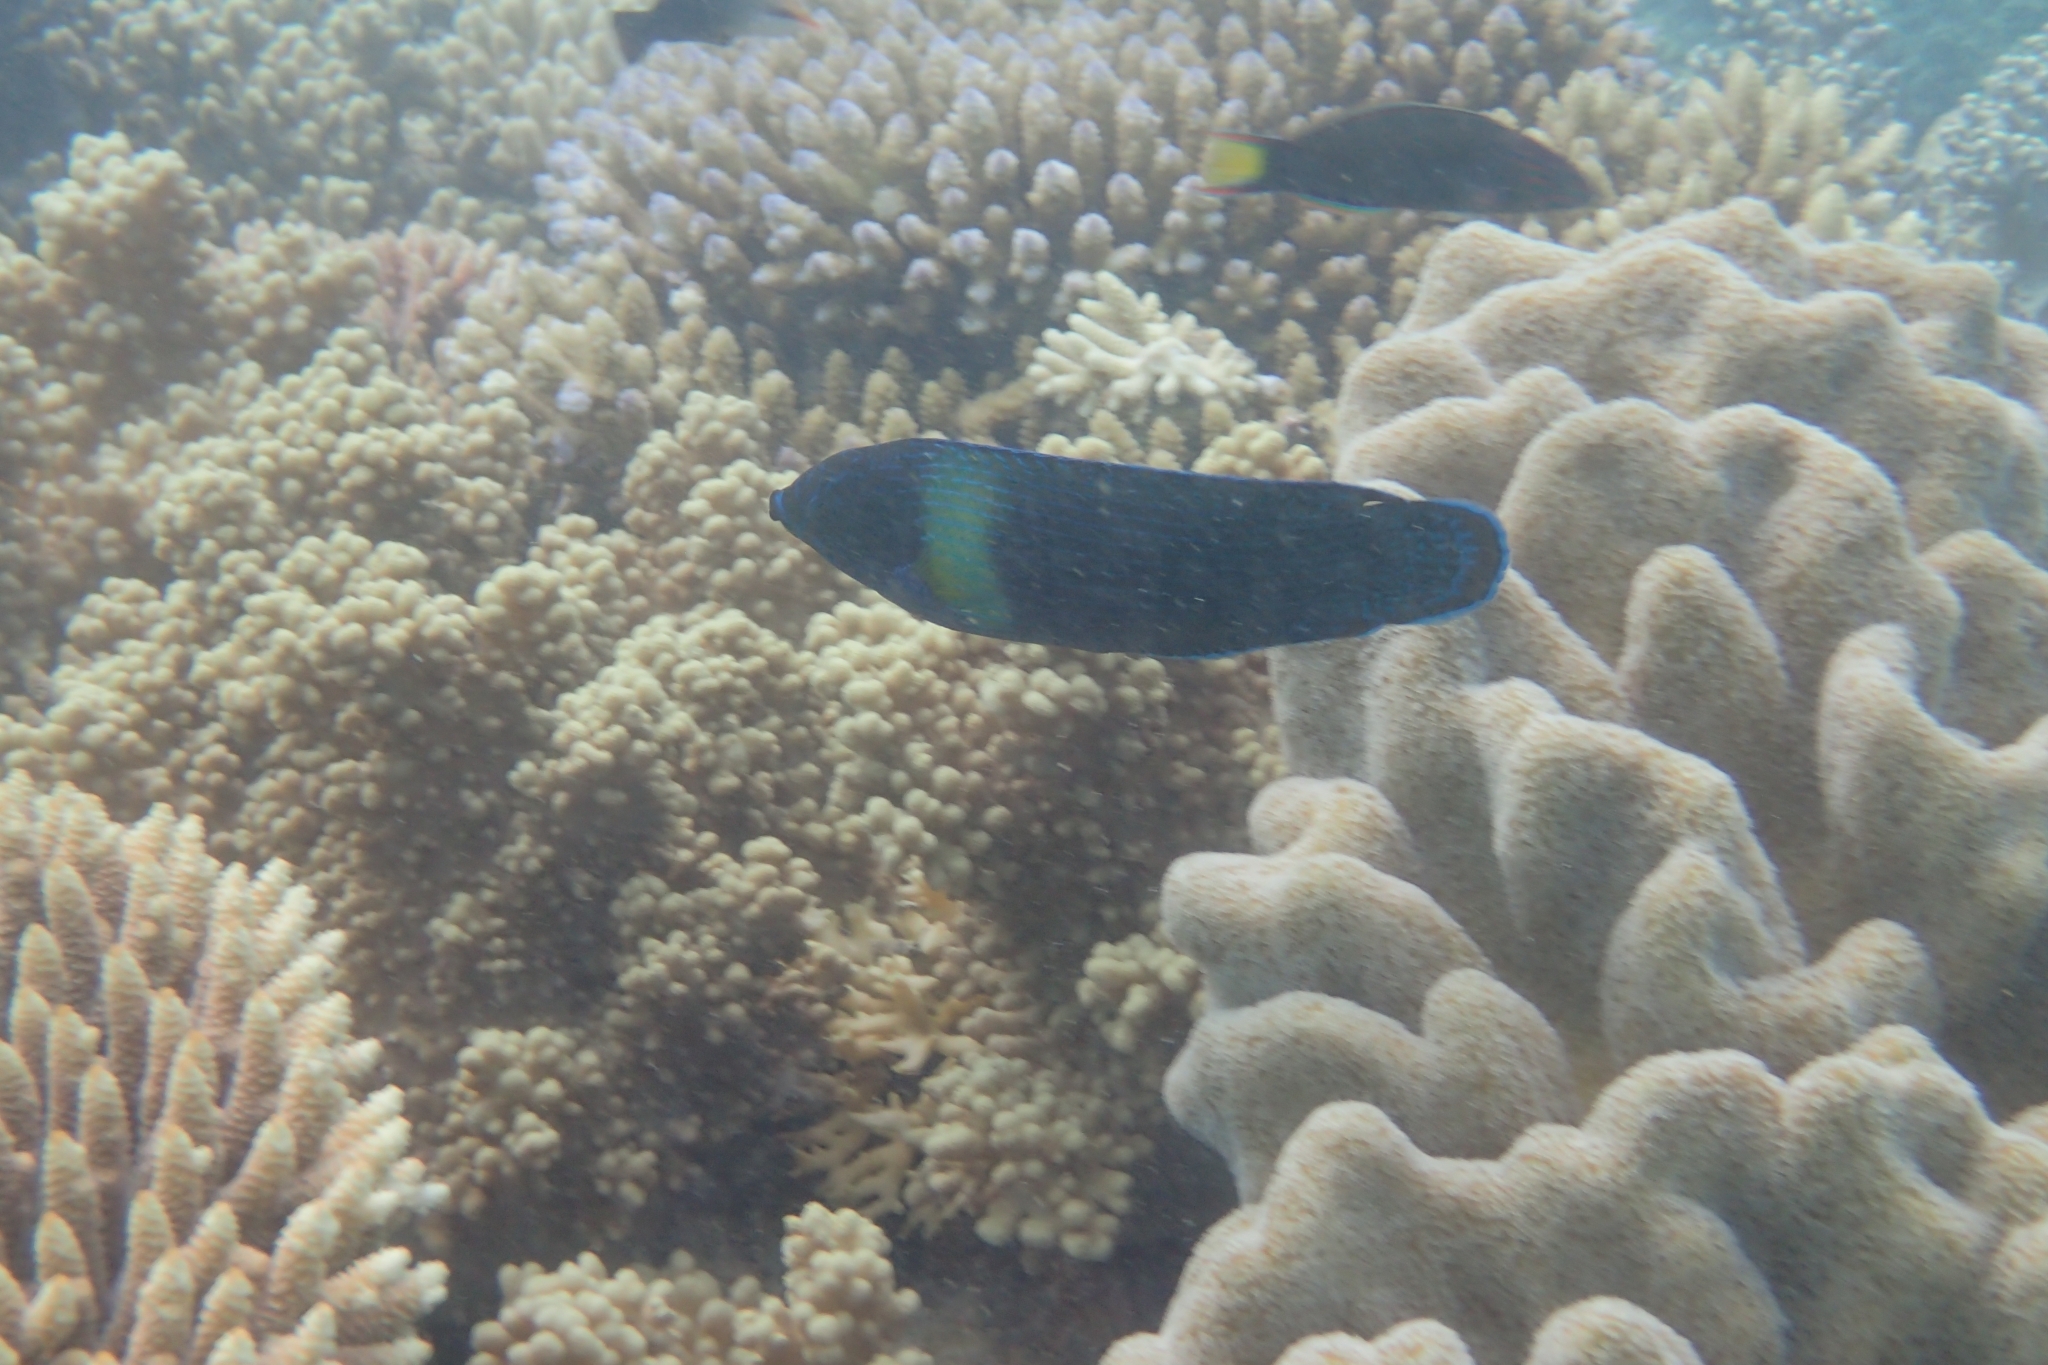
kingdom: Animalia
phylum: Chordata
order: Perciformes
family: Labridae
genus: Labrichthys
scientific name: Labrichthys unilineatus
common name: Onelined wrasse
